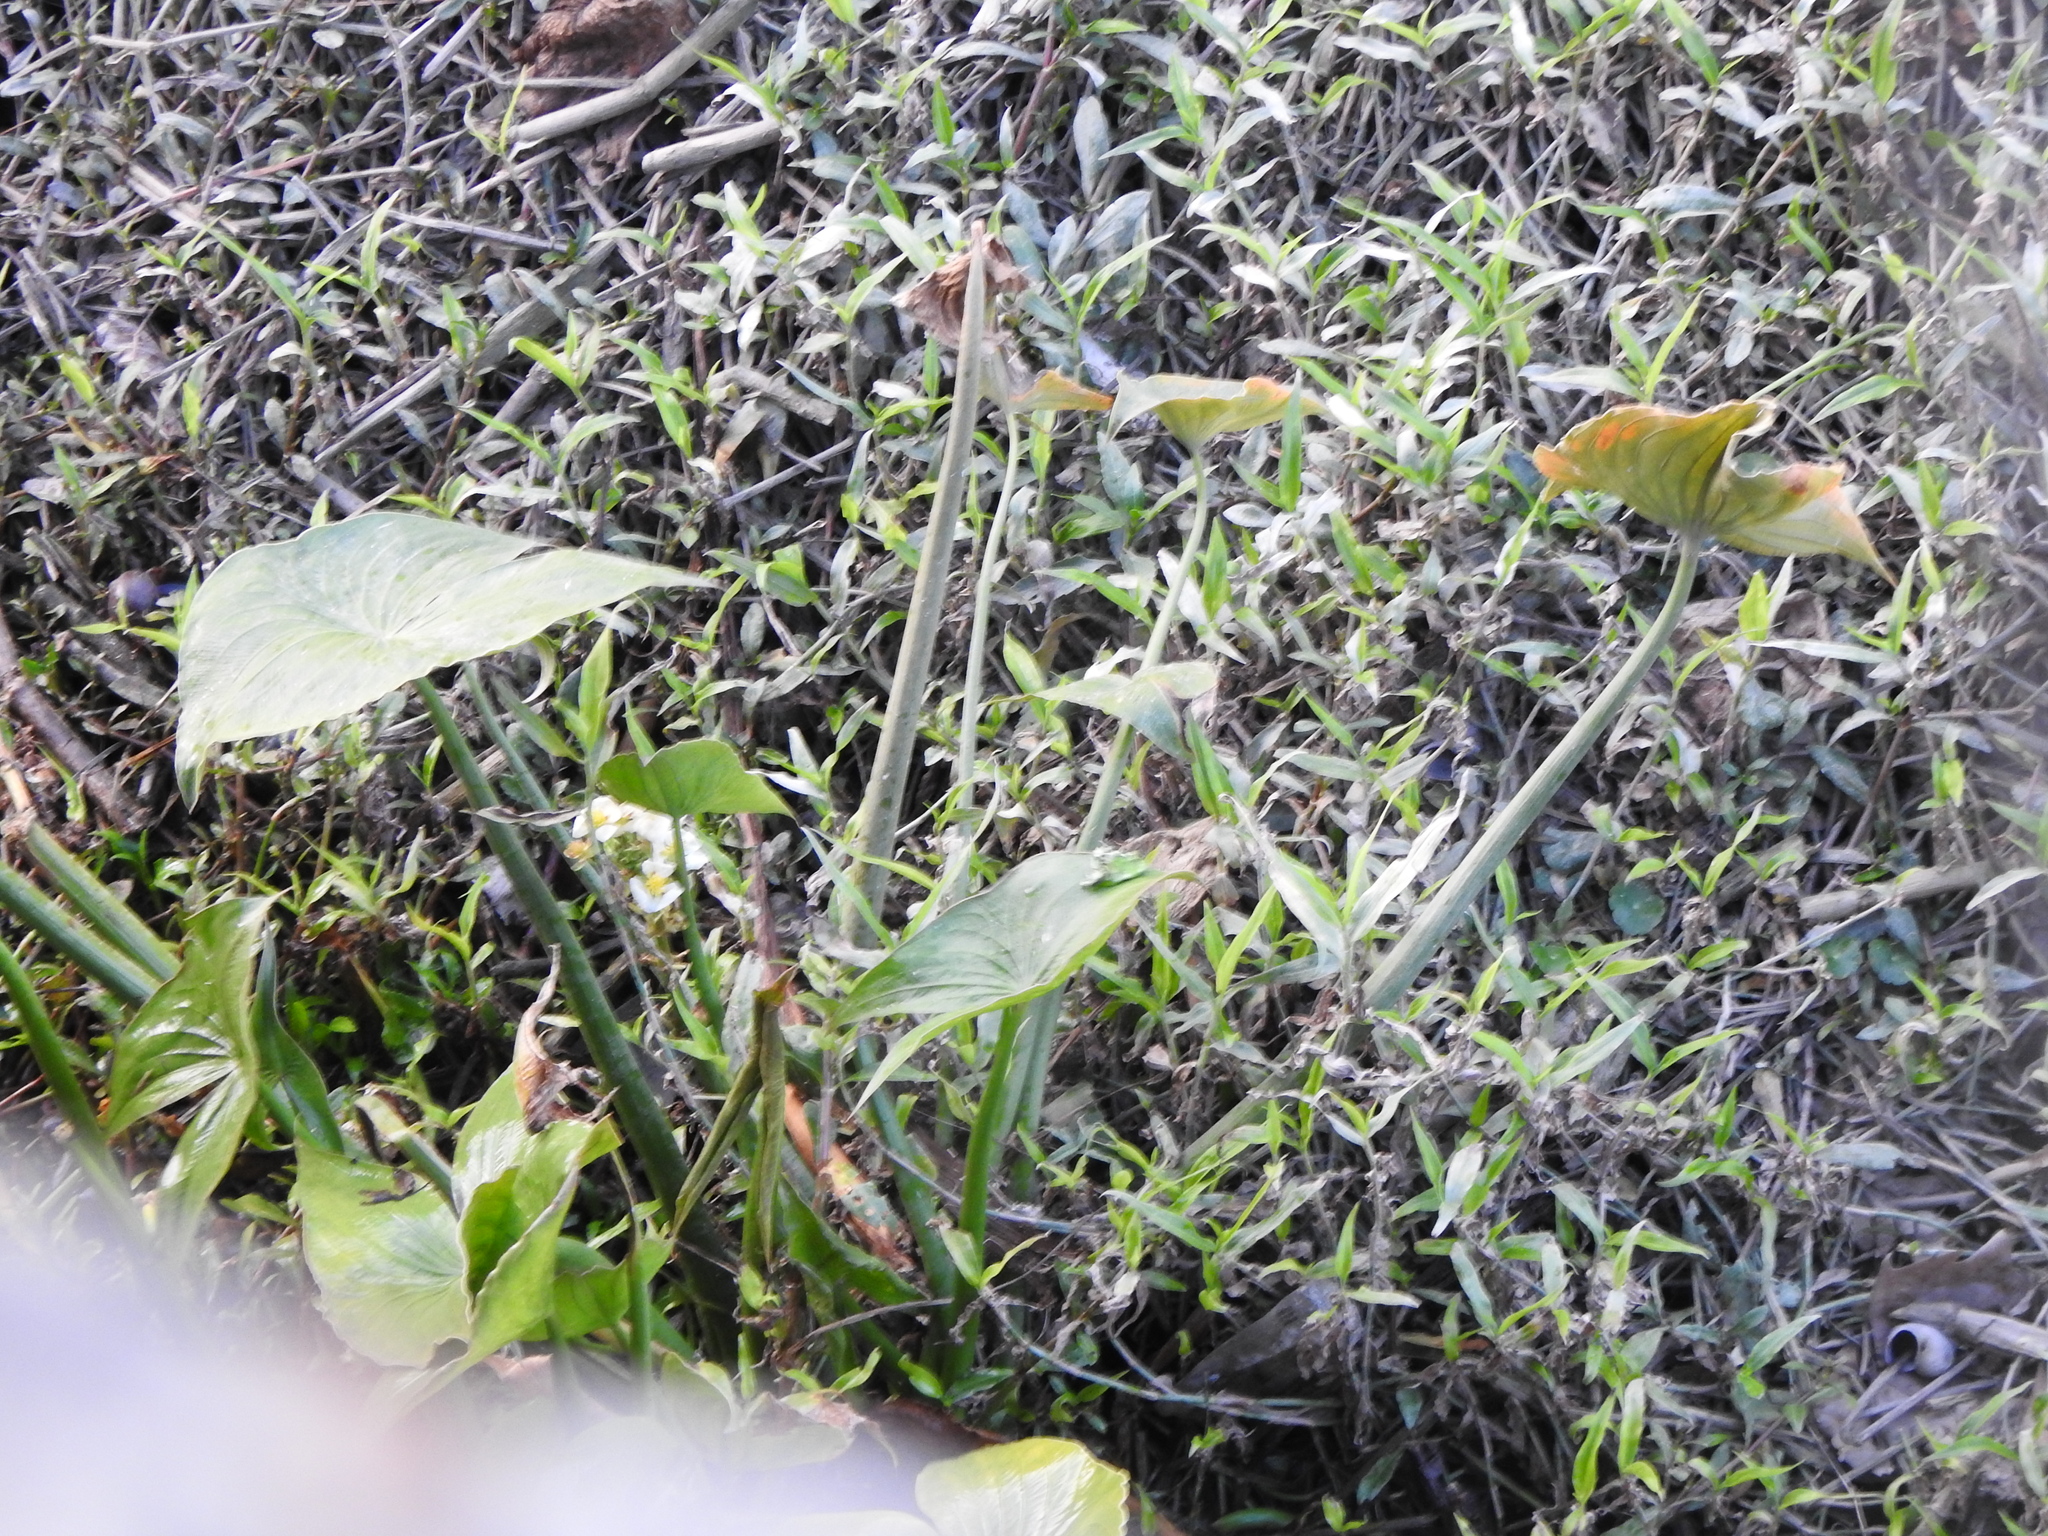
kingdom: Plantae
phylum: Tracheophyta
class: Liliopsida
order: Alismatales
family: Alismataceae
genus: Sagittaria
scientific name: Sagittaria montevidensis
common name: Giant arrowhead
